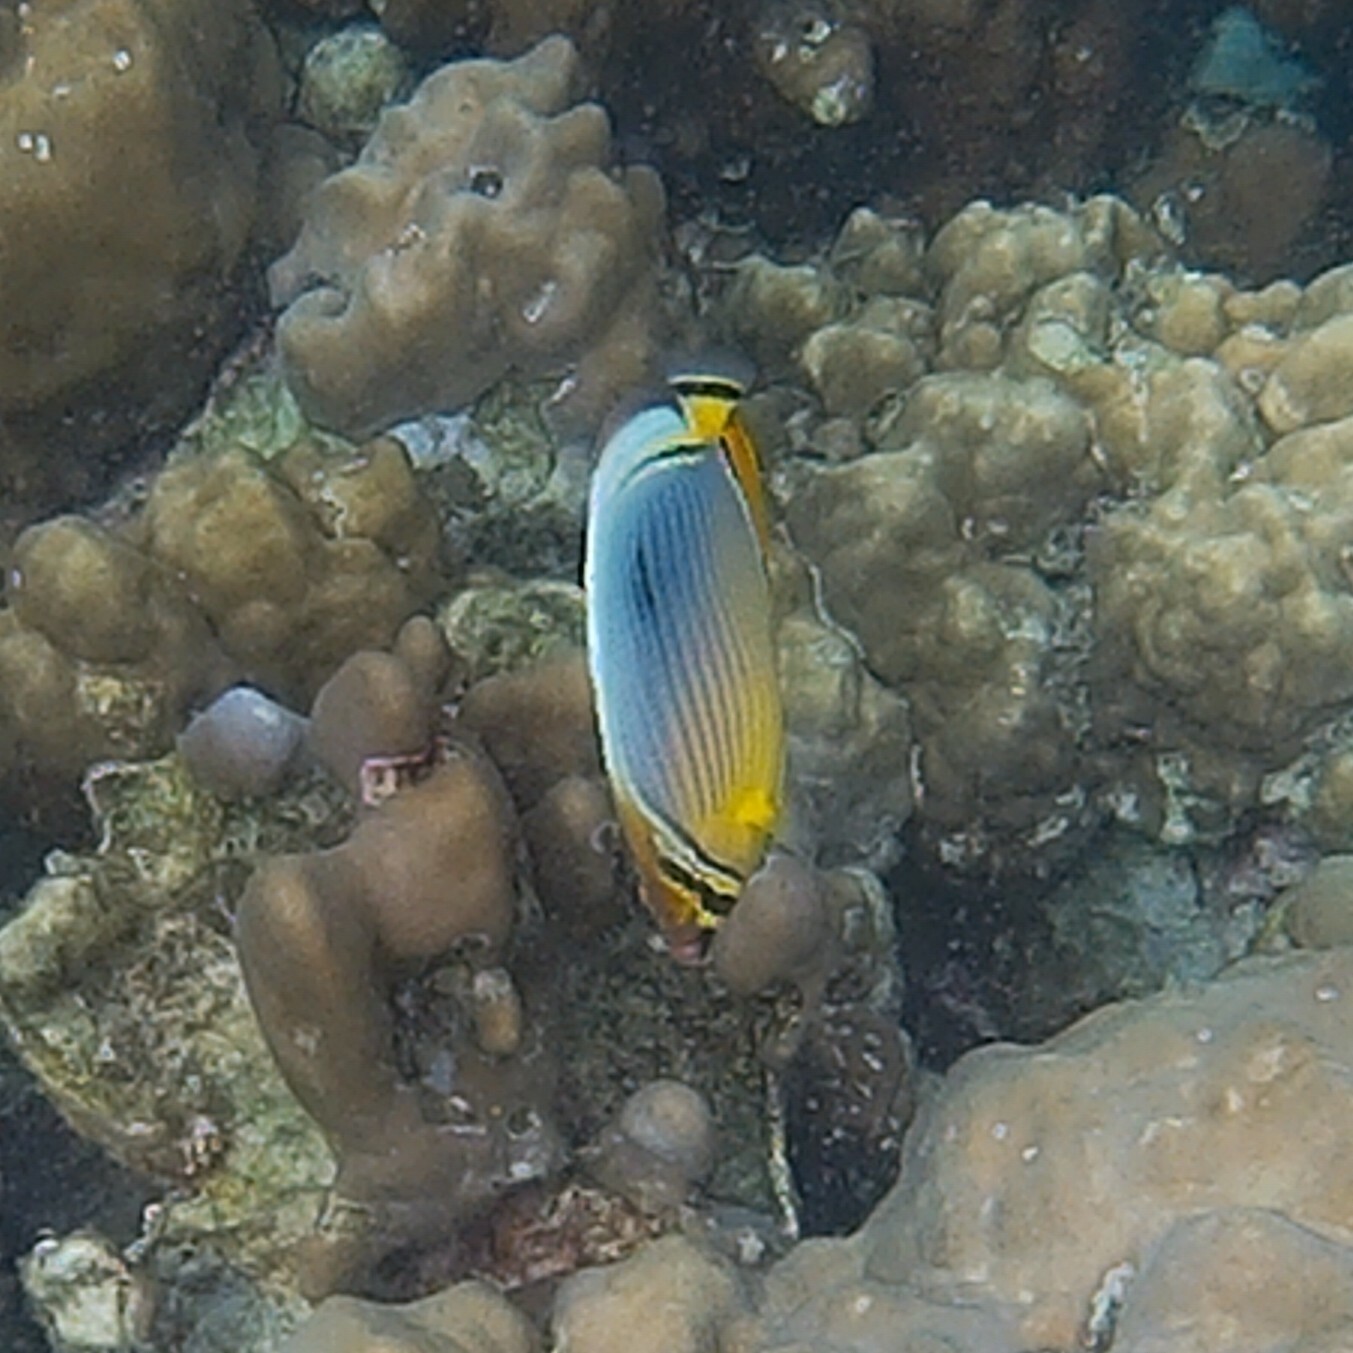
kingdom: Animalia
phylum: Chordata
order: Perciformes
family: Chaetodontidae
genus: Chaetodon
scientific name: Chaetodon trifasciatus
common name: Redfin butterflyfish
